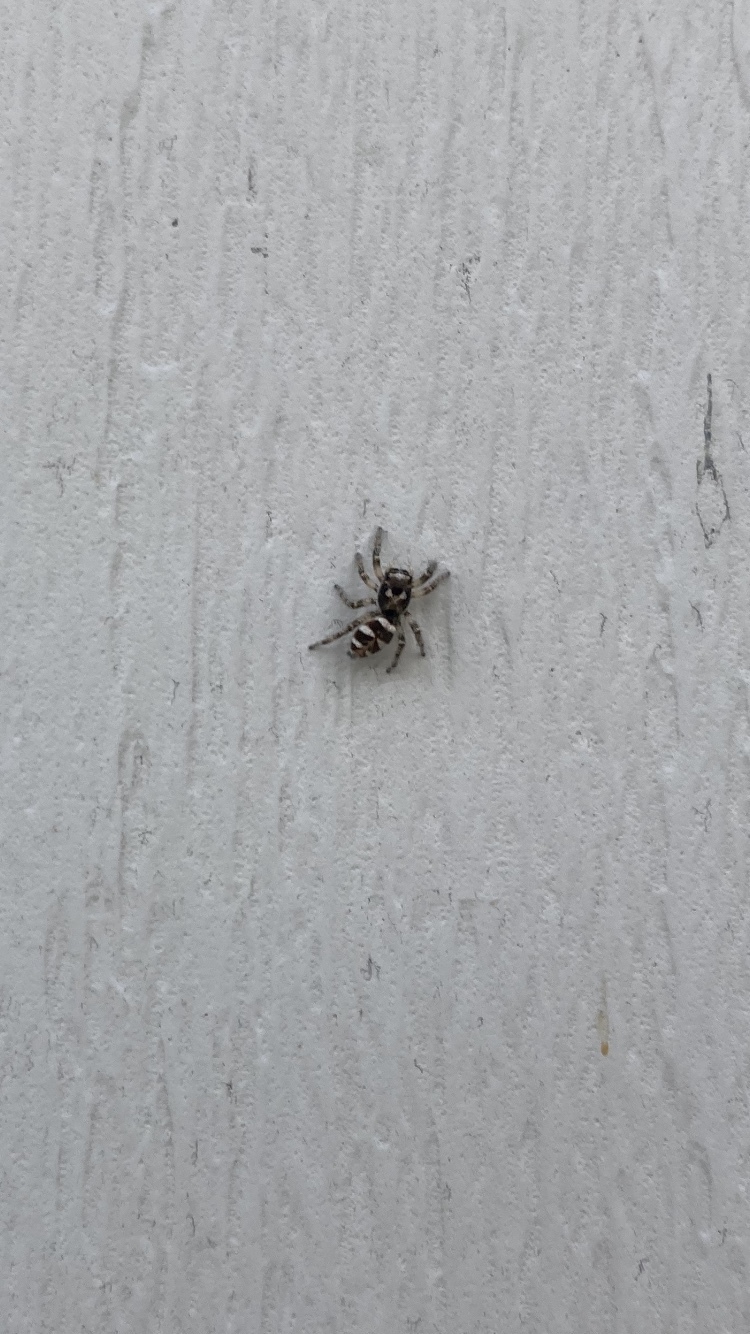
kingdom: Animalia
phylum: Arthropoda
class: Arachnida
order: Araneae
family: Salticidae
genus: Salticus
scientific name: Salticus scenicus
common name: Zebra jumper
